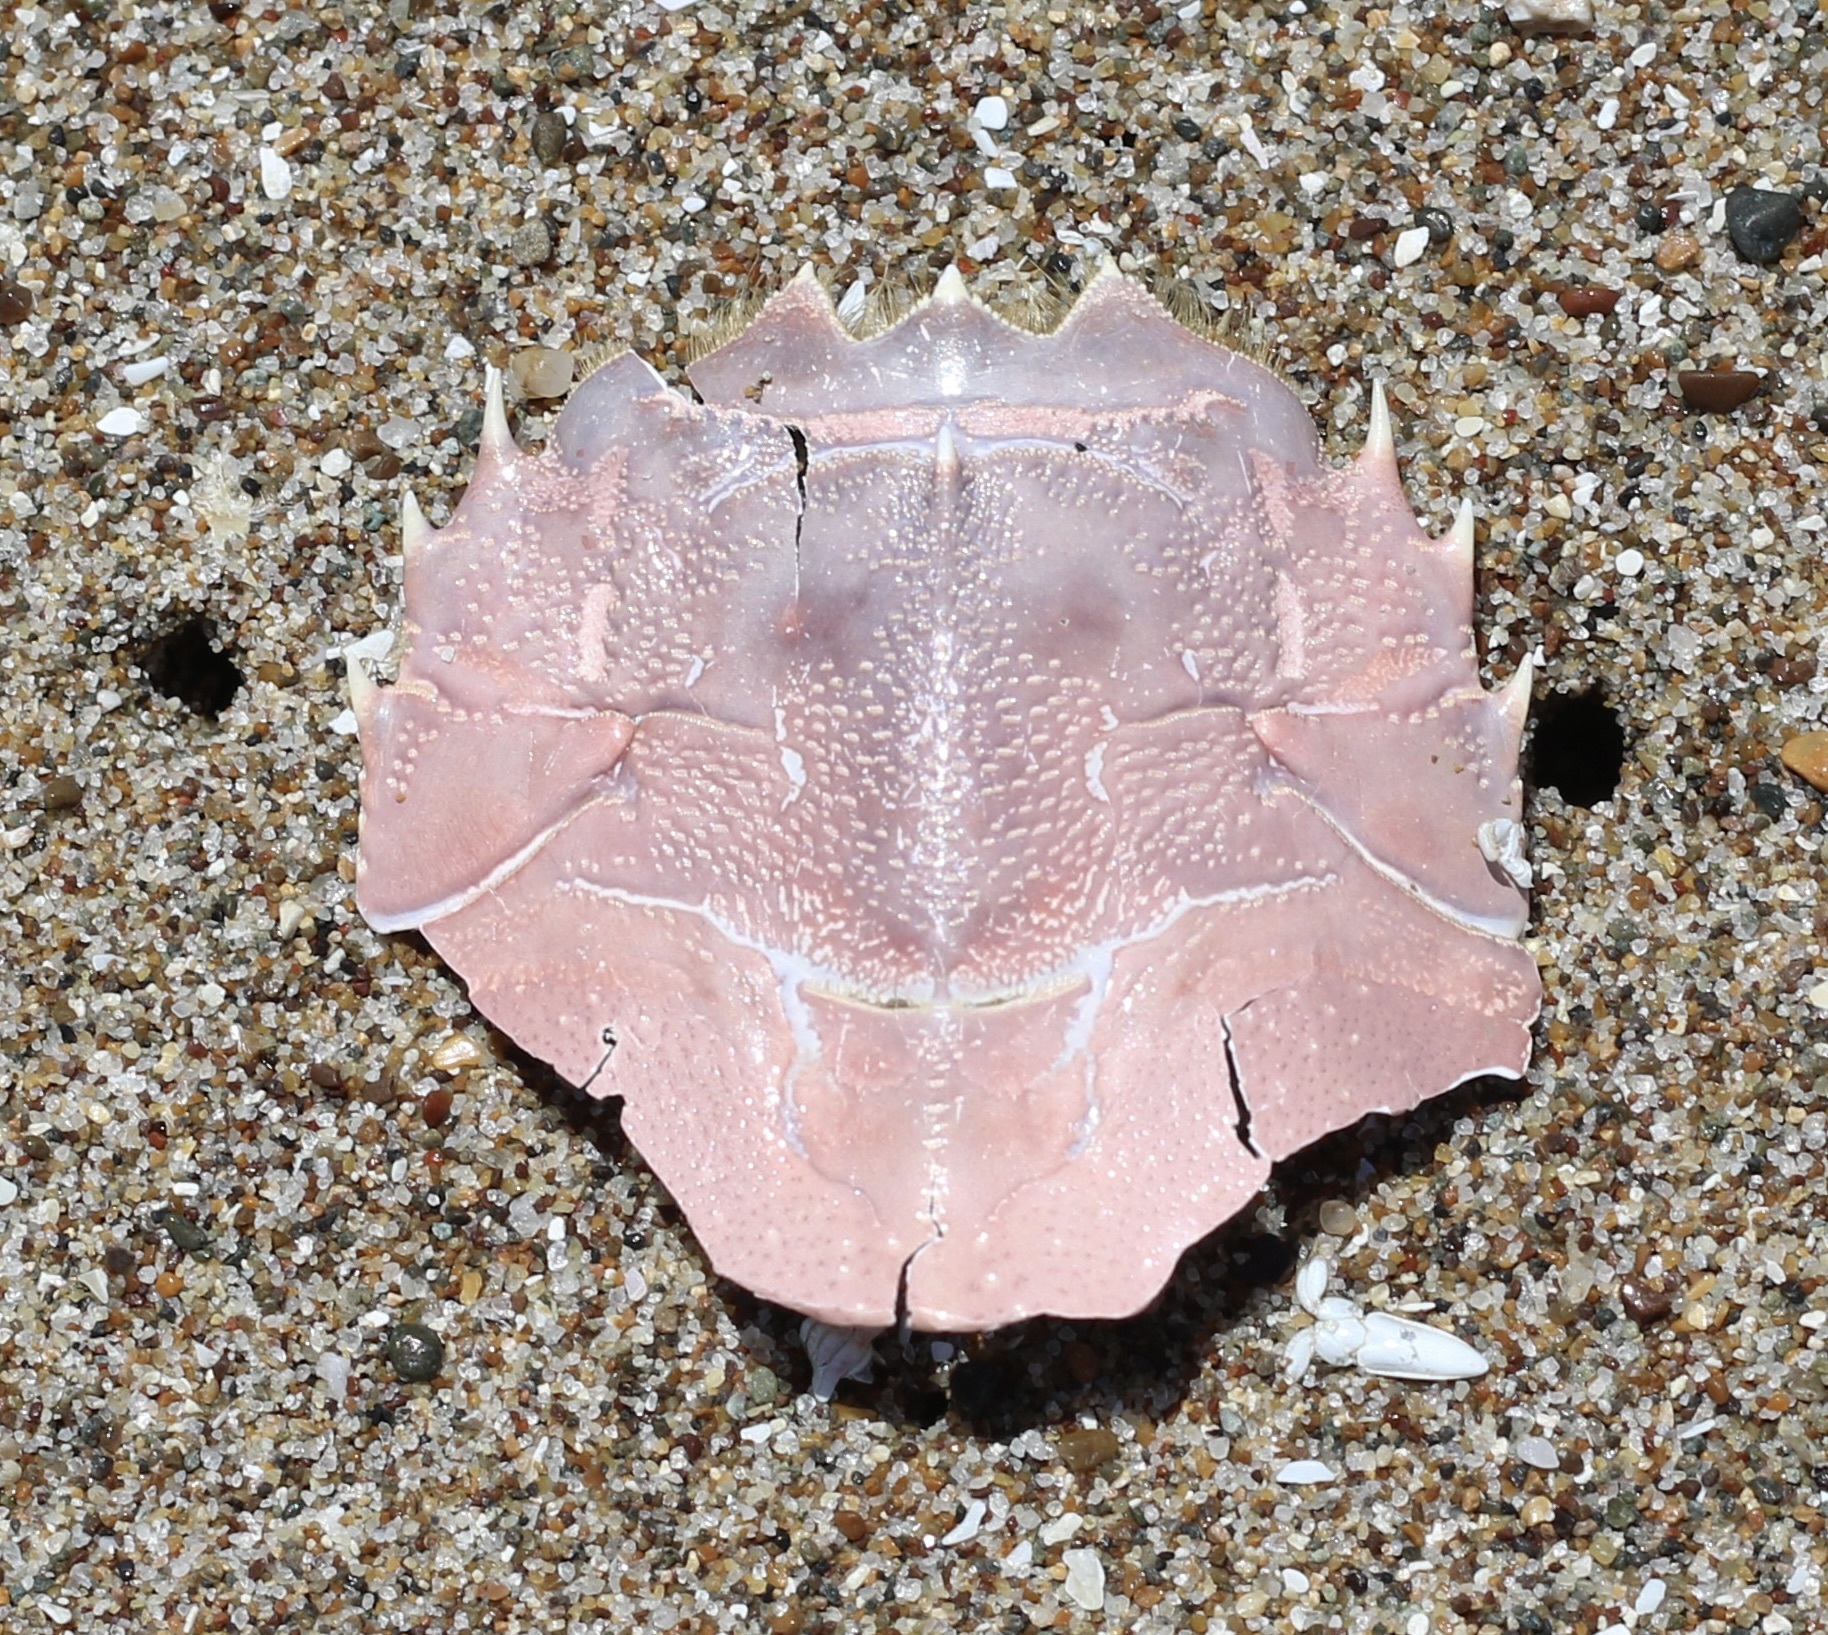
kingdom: Animalia
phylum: Arthropoda
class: Malacostraca
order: Decapoda
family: Blepharipodidae
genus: Blepharipoda
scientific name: Blepharipoda occidentalis
